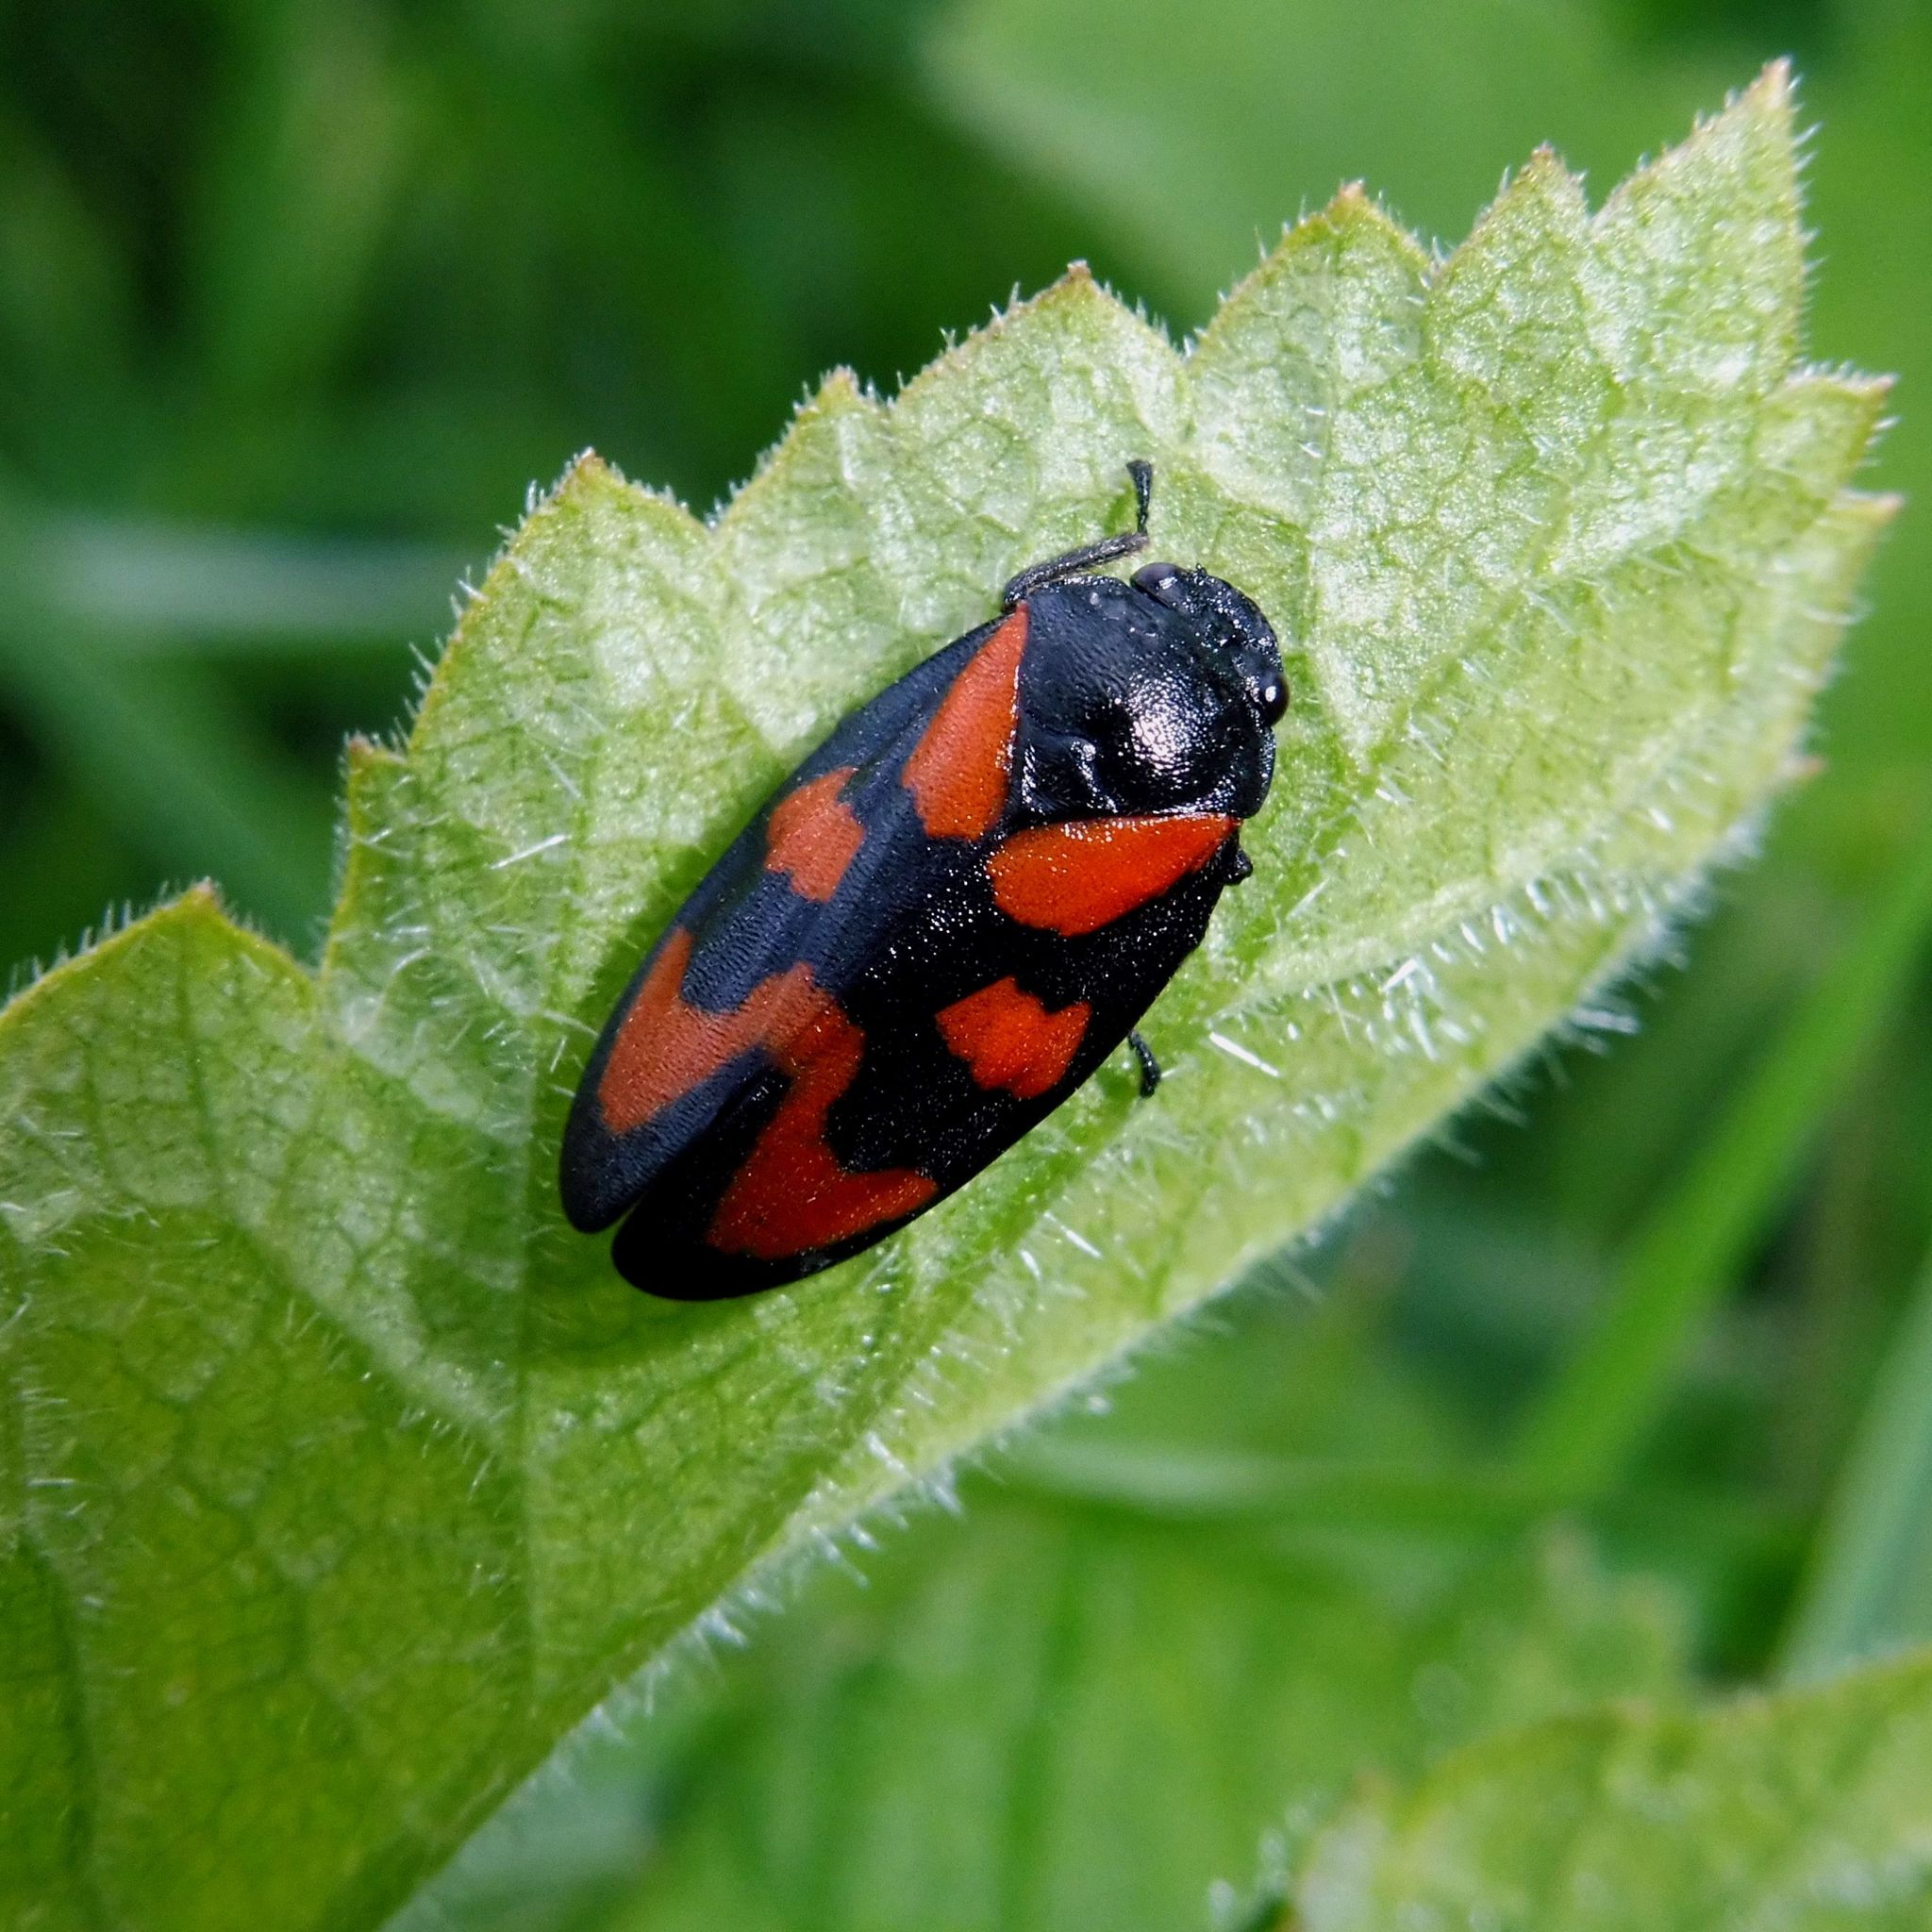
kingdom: Animalia
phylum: Arthropoda
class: Insecta
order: Hemiptera
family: Cercopidae
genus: Cercopis
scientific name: Cercopis vulnerata
